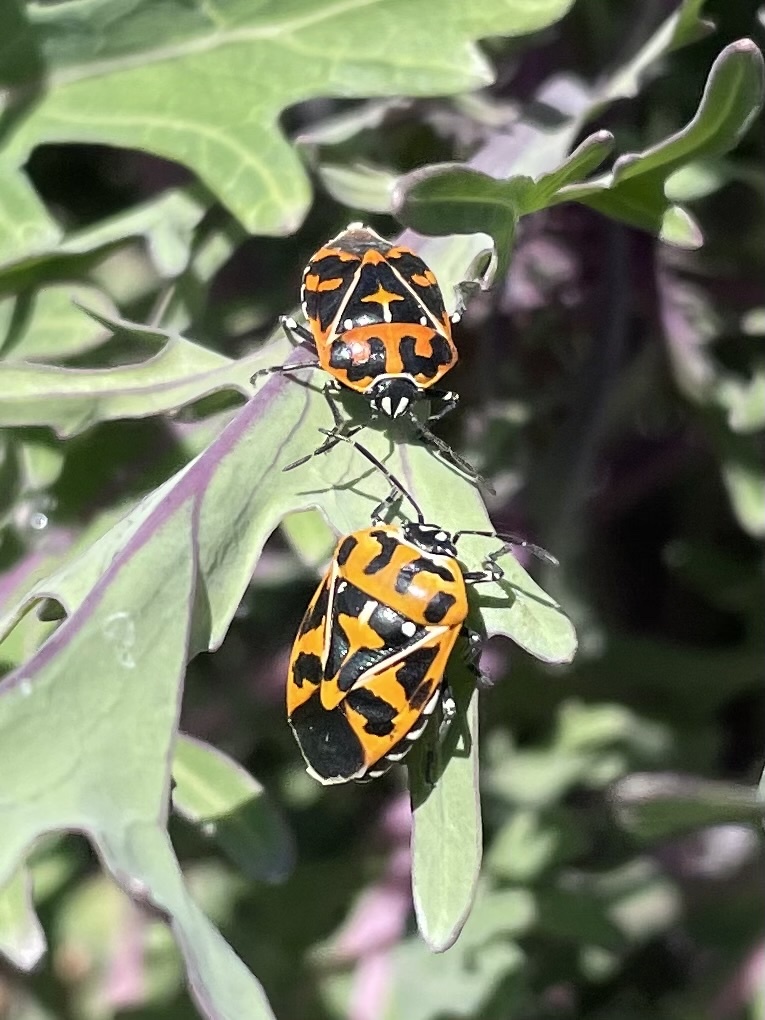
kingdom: Animalia
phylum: Arthropoda
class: Insecta
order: Hemiptera
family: Pentatomidae
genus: Murgantia
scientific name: Murgantia histrionica
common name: Harlequin bug
